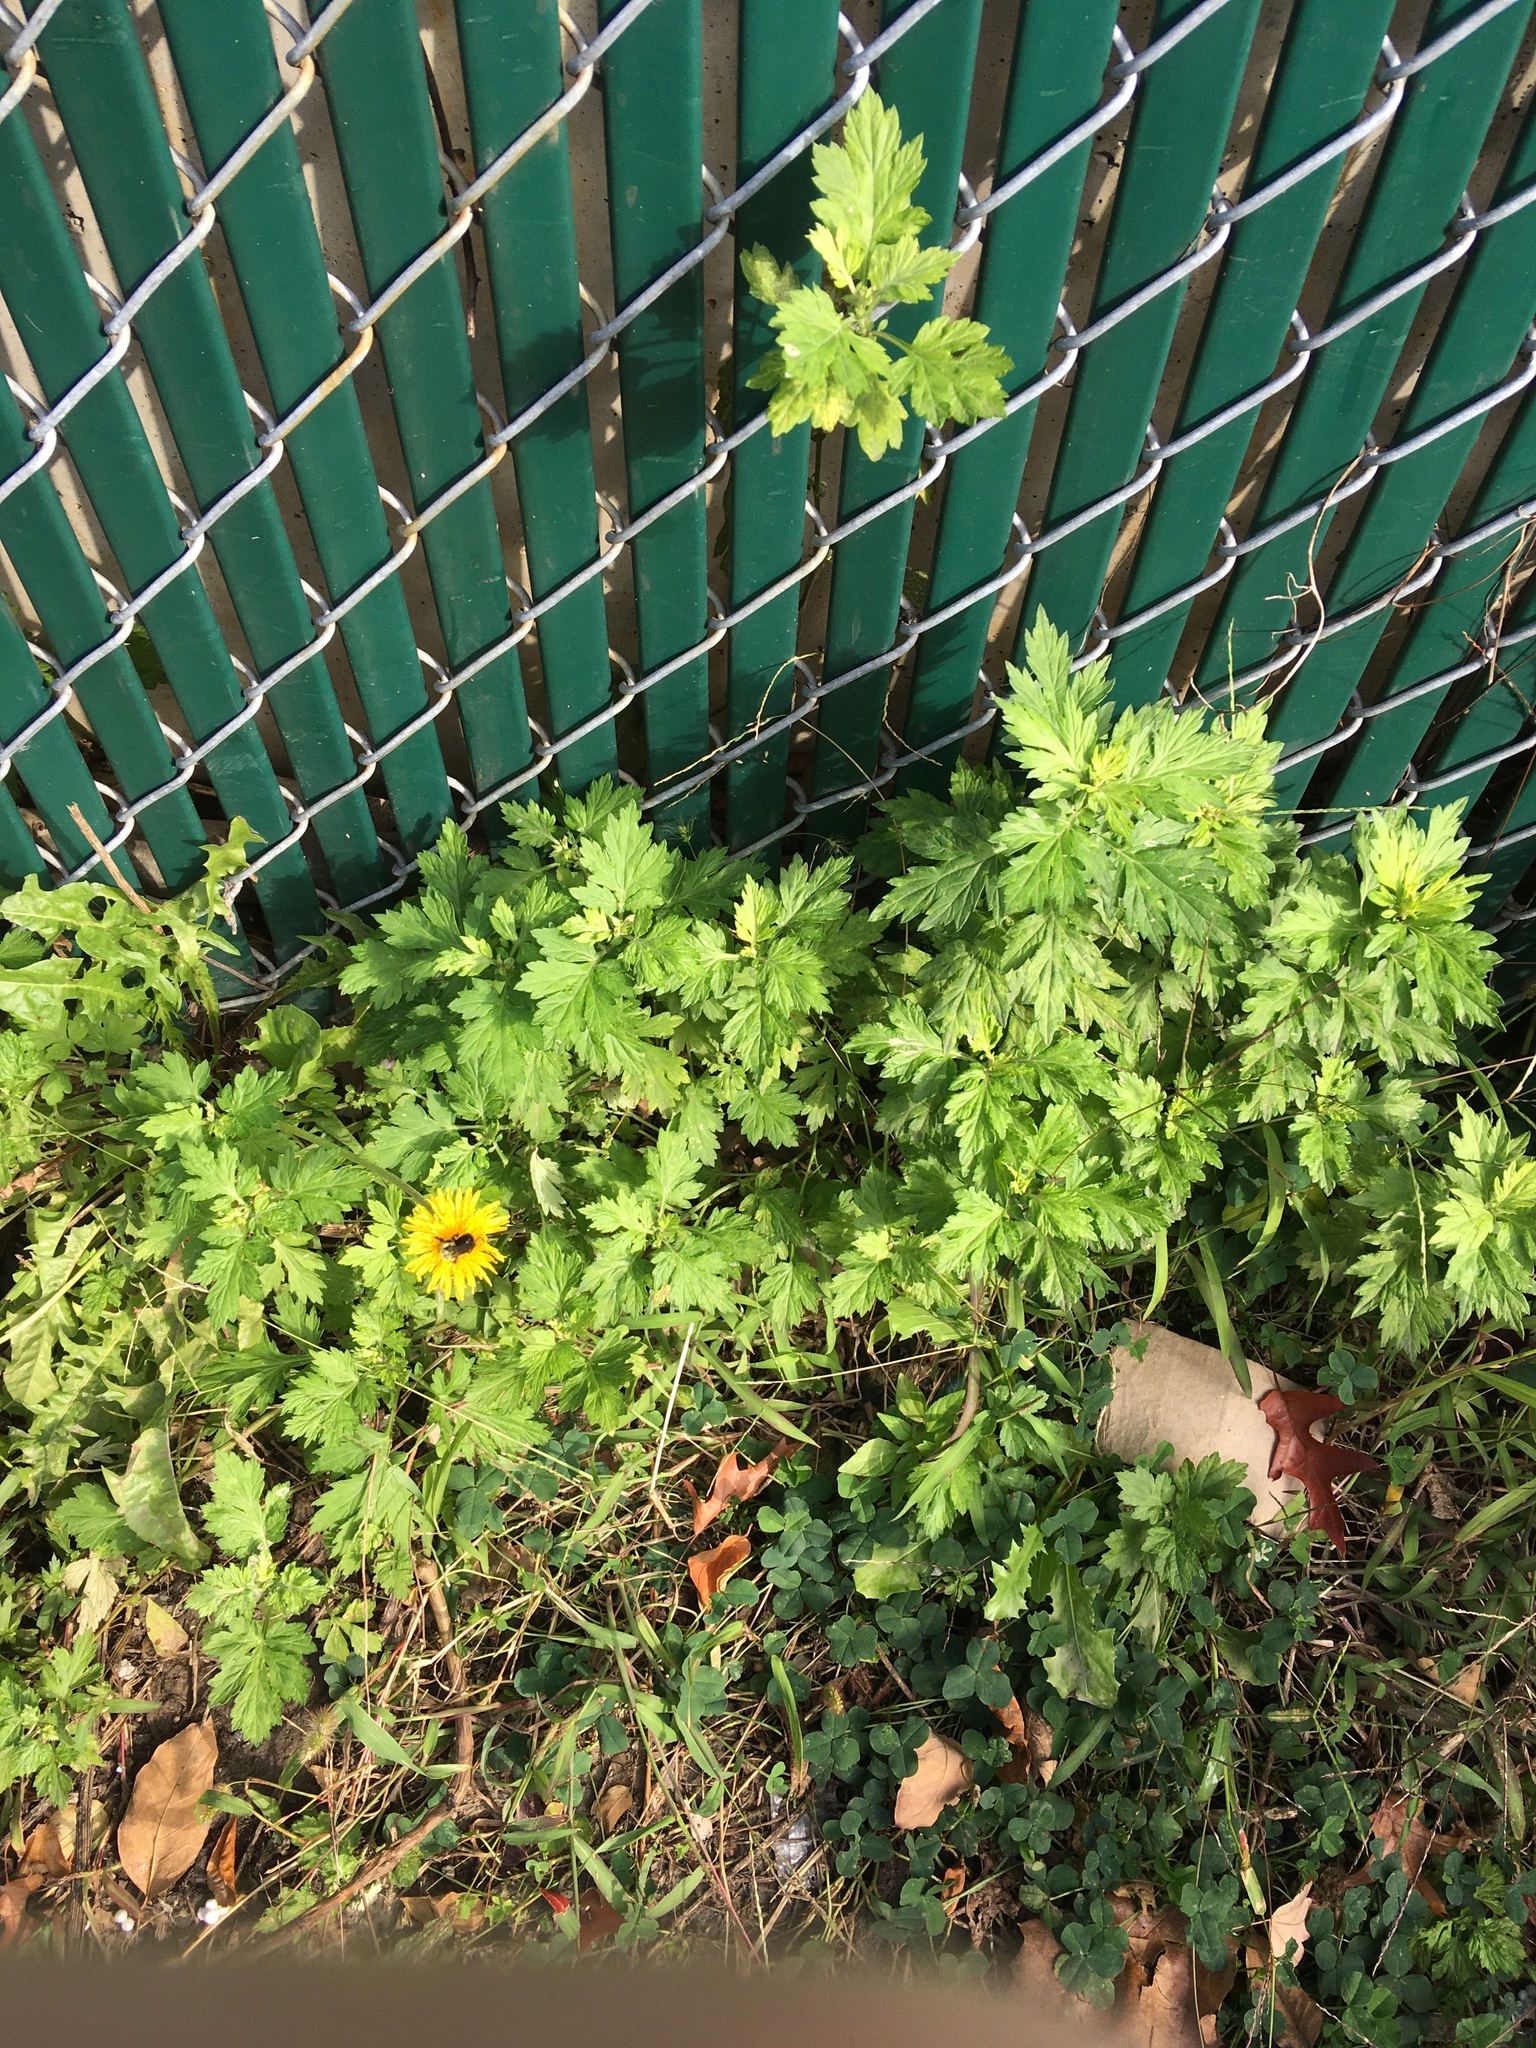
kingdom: Plantae
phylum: Tracheophyta
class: Magnoliopsida
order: Asterales
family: Asteraceae
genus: Artemisia
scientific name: Artemisia vulgaris
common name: Mugwort
